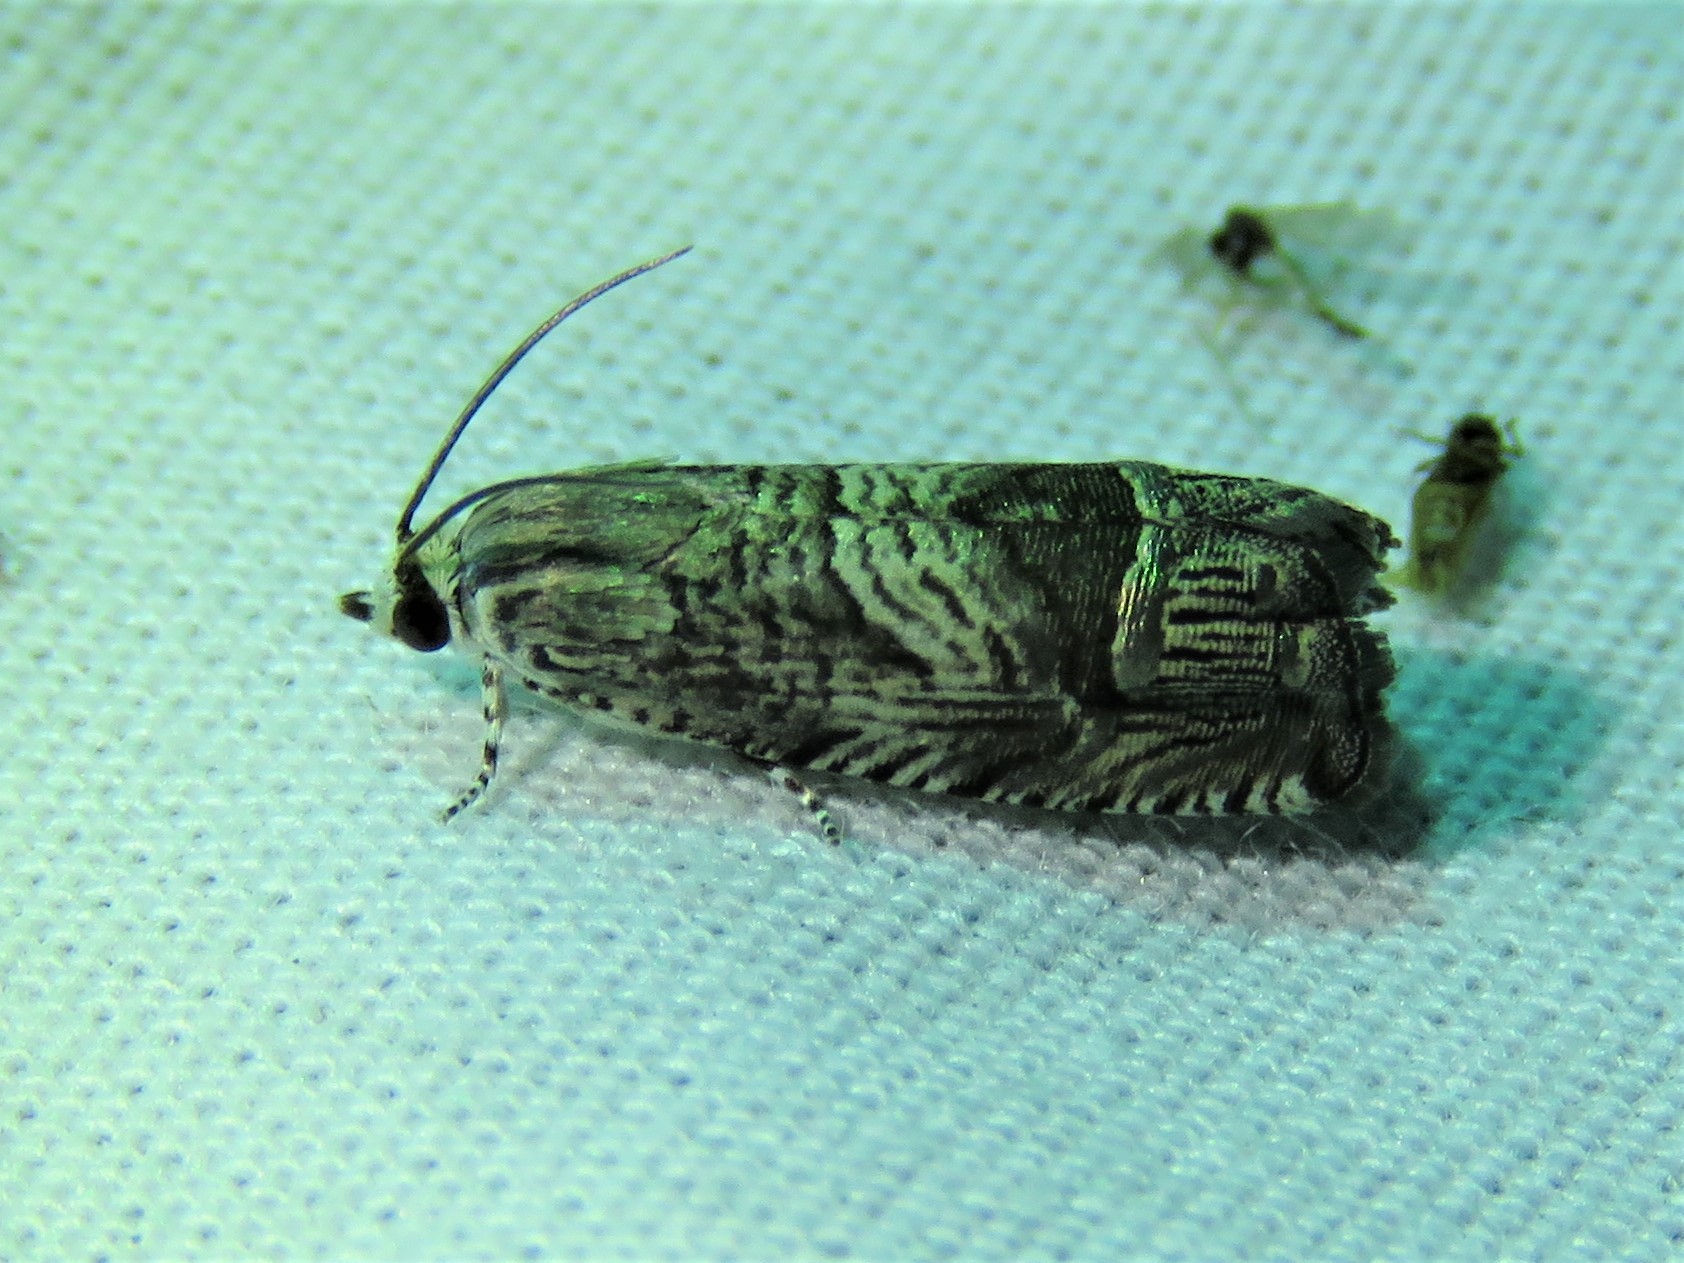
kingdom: Animalia
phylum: Arthropoda
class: Insecta
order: Lepidoptera
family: Tortricidae
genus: Ofatulena
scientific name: Ofatulena duodecemstriata
